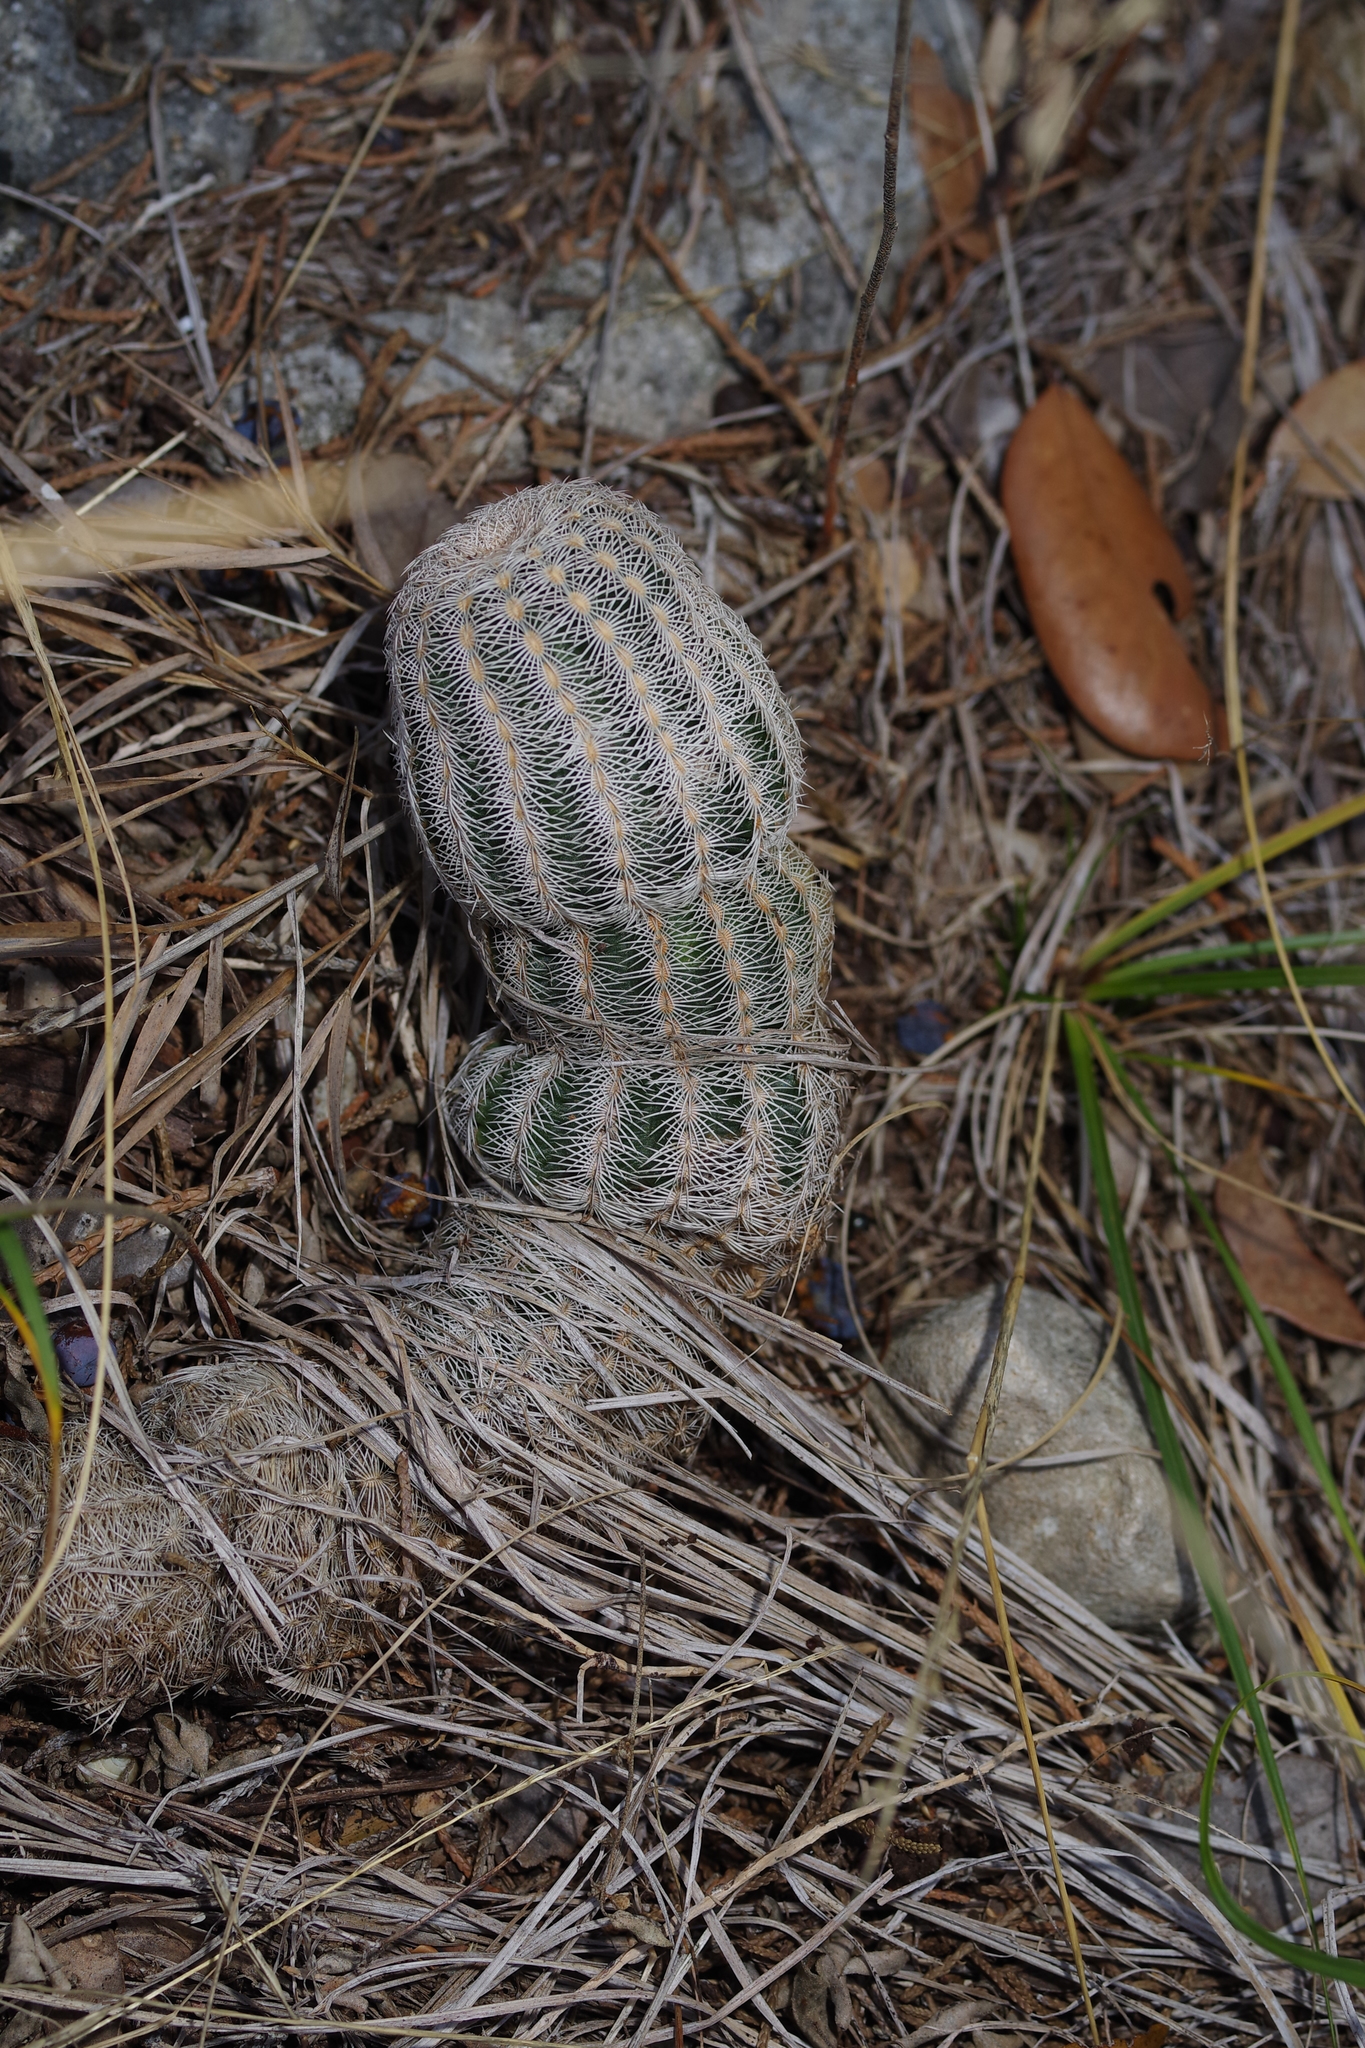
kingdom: Plantae
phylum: Tracheophyta
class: Magnoliopsida
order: Caryophyllales
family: Cactaceae
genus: Echinocereus
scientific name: Echinocereus reichenbachii
